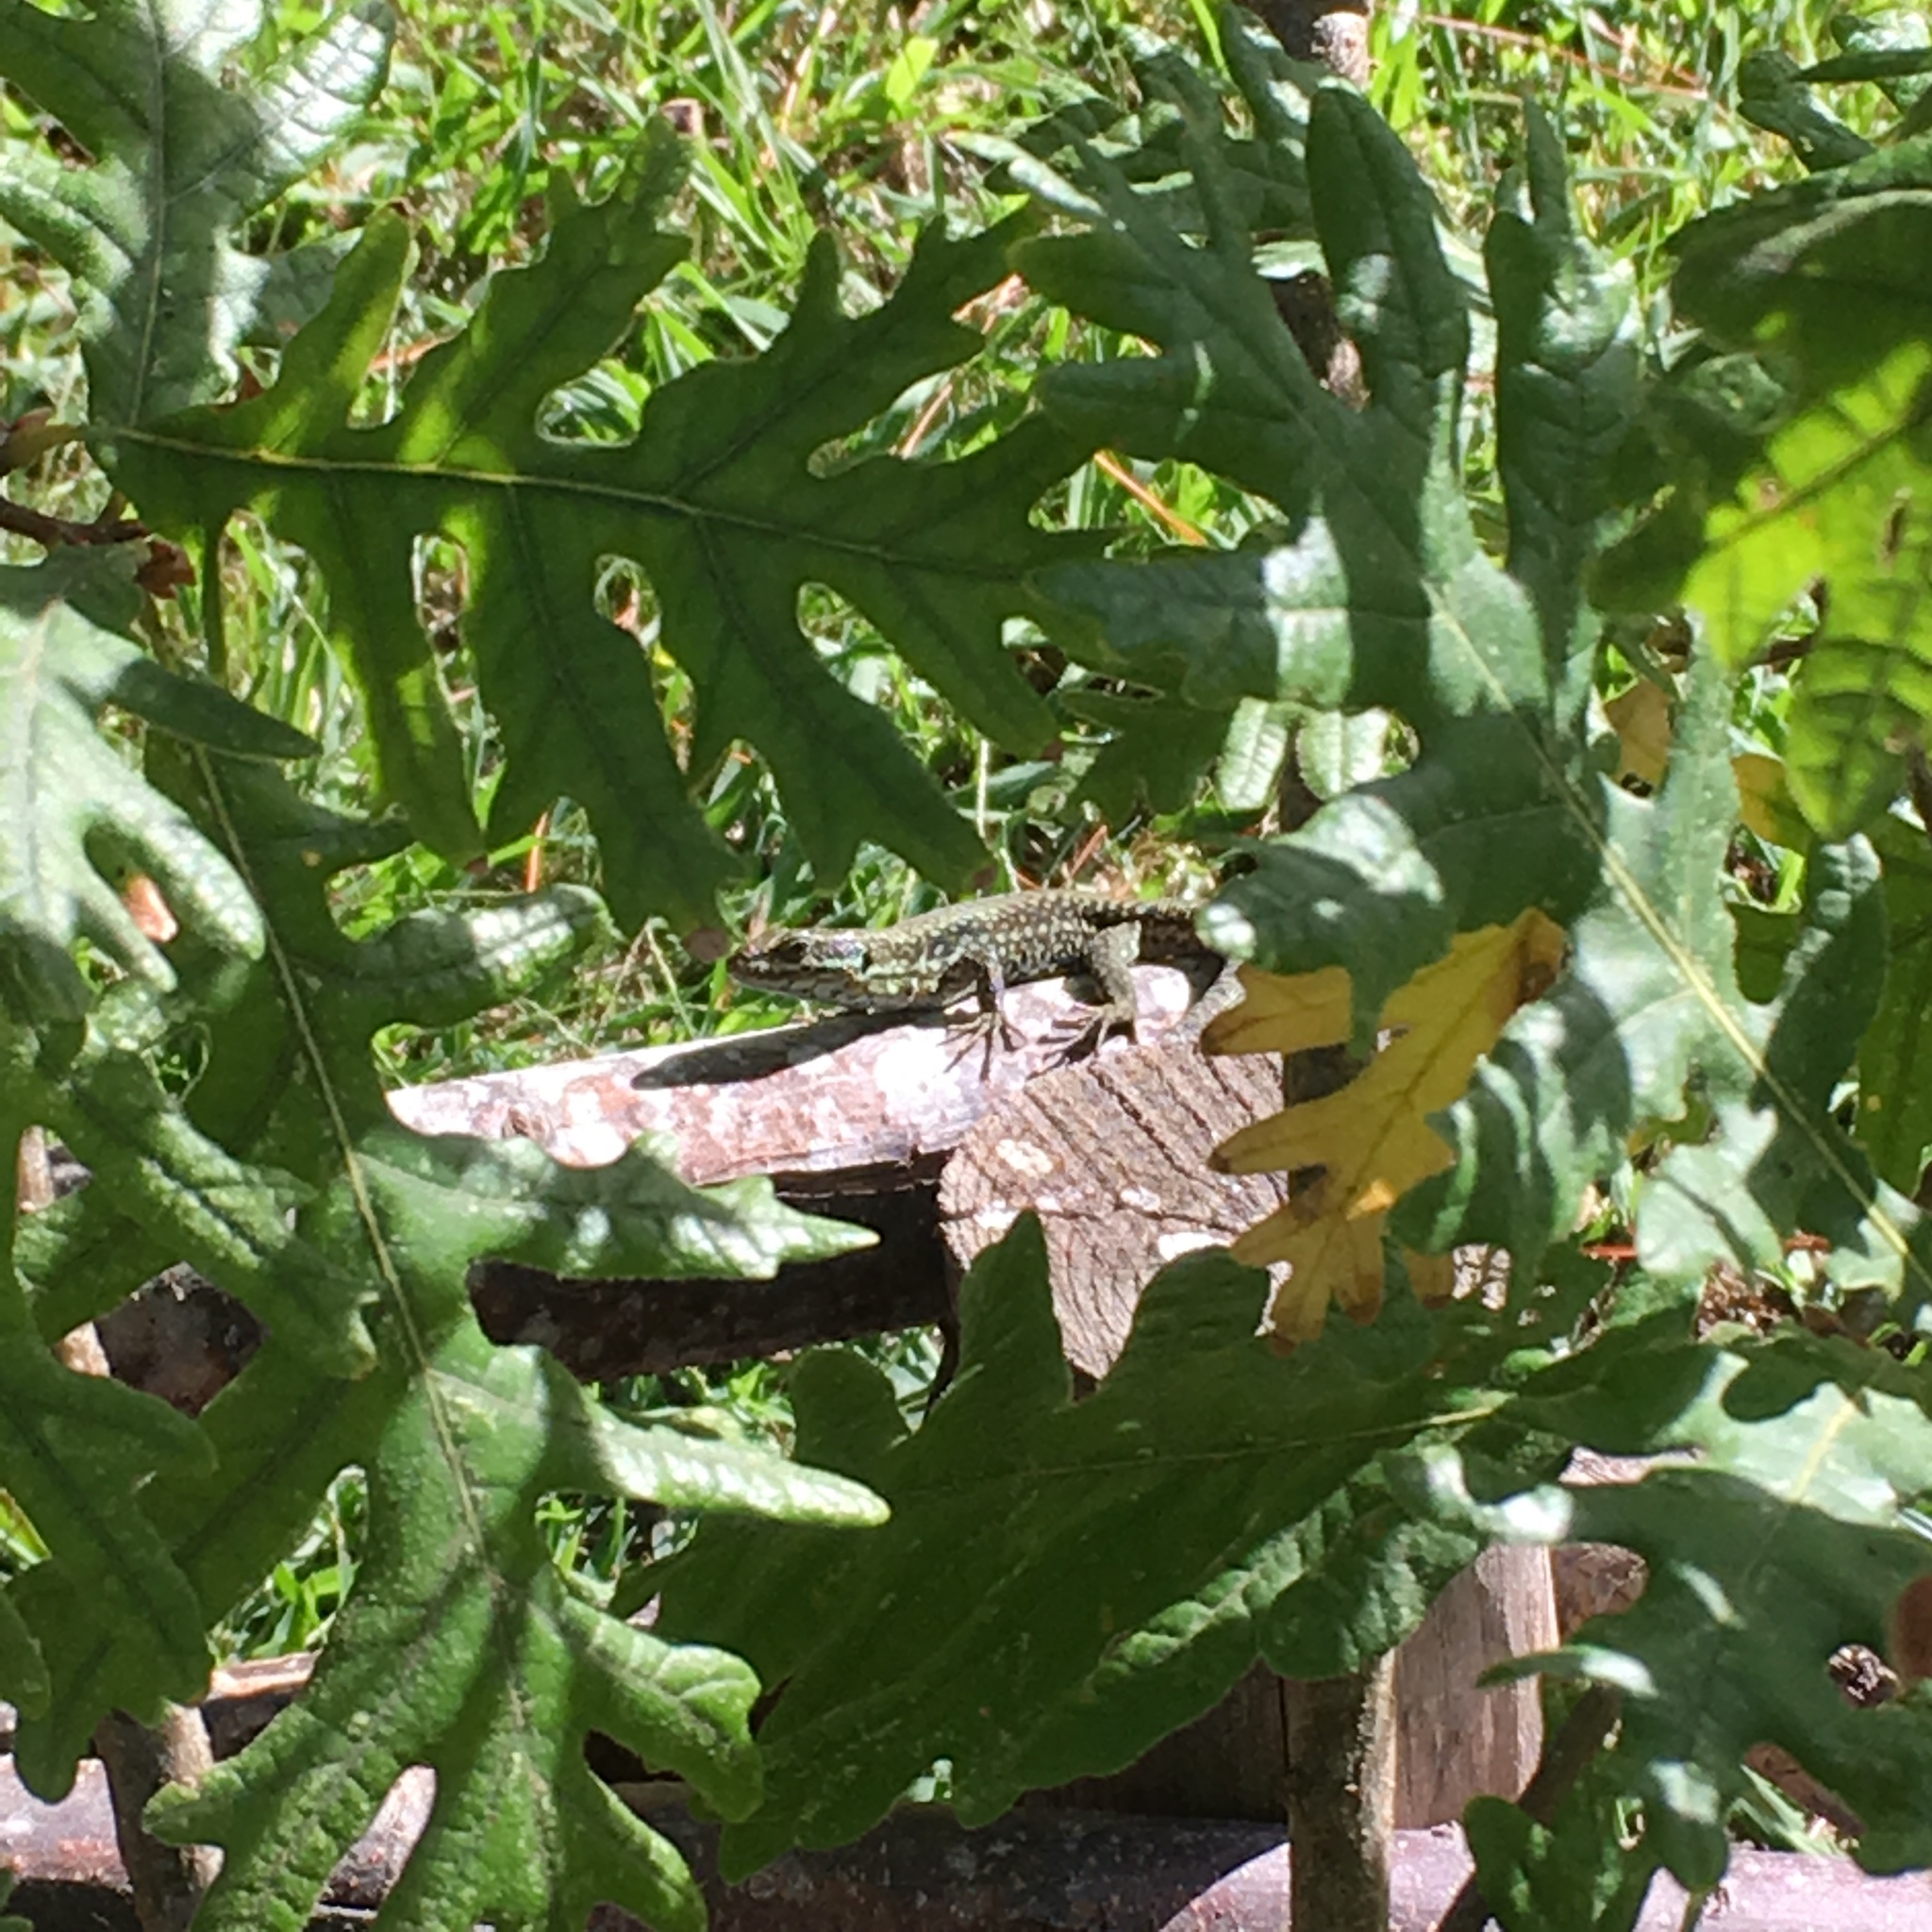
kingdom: Animalia
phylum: Chordata
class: Squamata
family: Lacertidae
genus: Podarcis
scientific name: Podarcis muralis
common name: Common wall lizard
